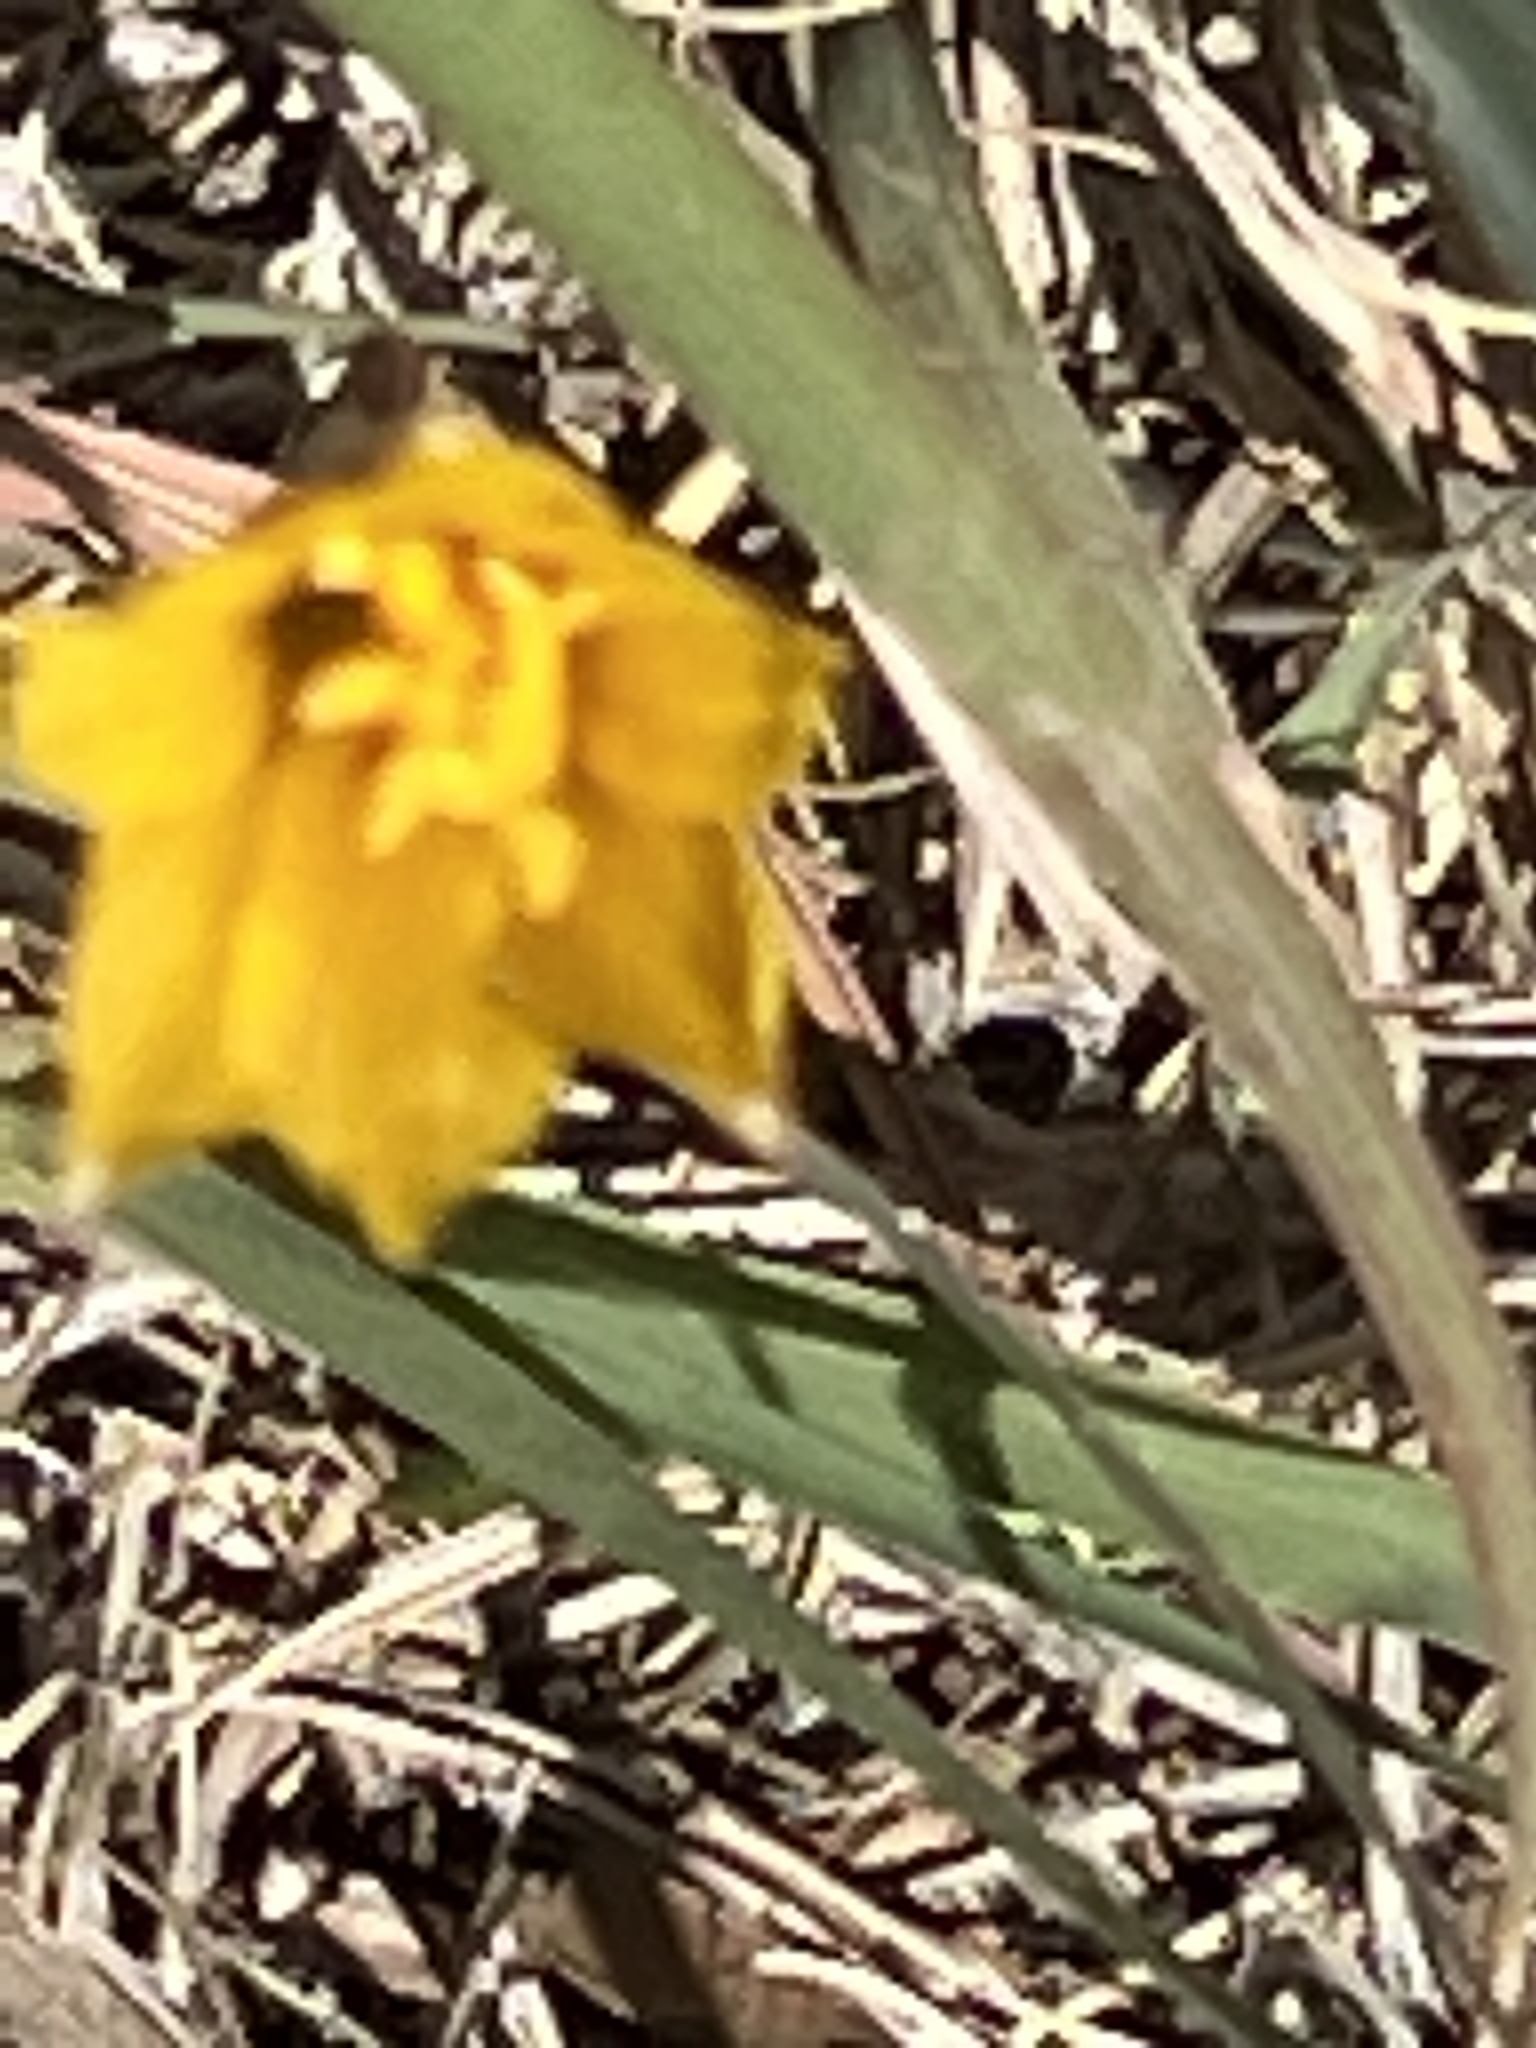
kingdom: Plantae
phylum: Tracheophyta
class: Liliopsida
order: Asparagales
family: Amaryllidaceae
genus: Zephyranthes
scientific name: Zephyranthes tubispatha
